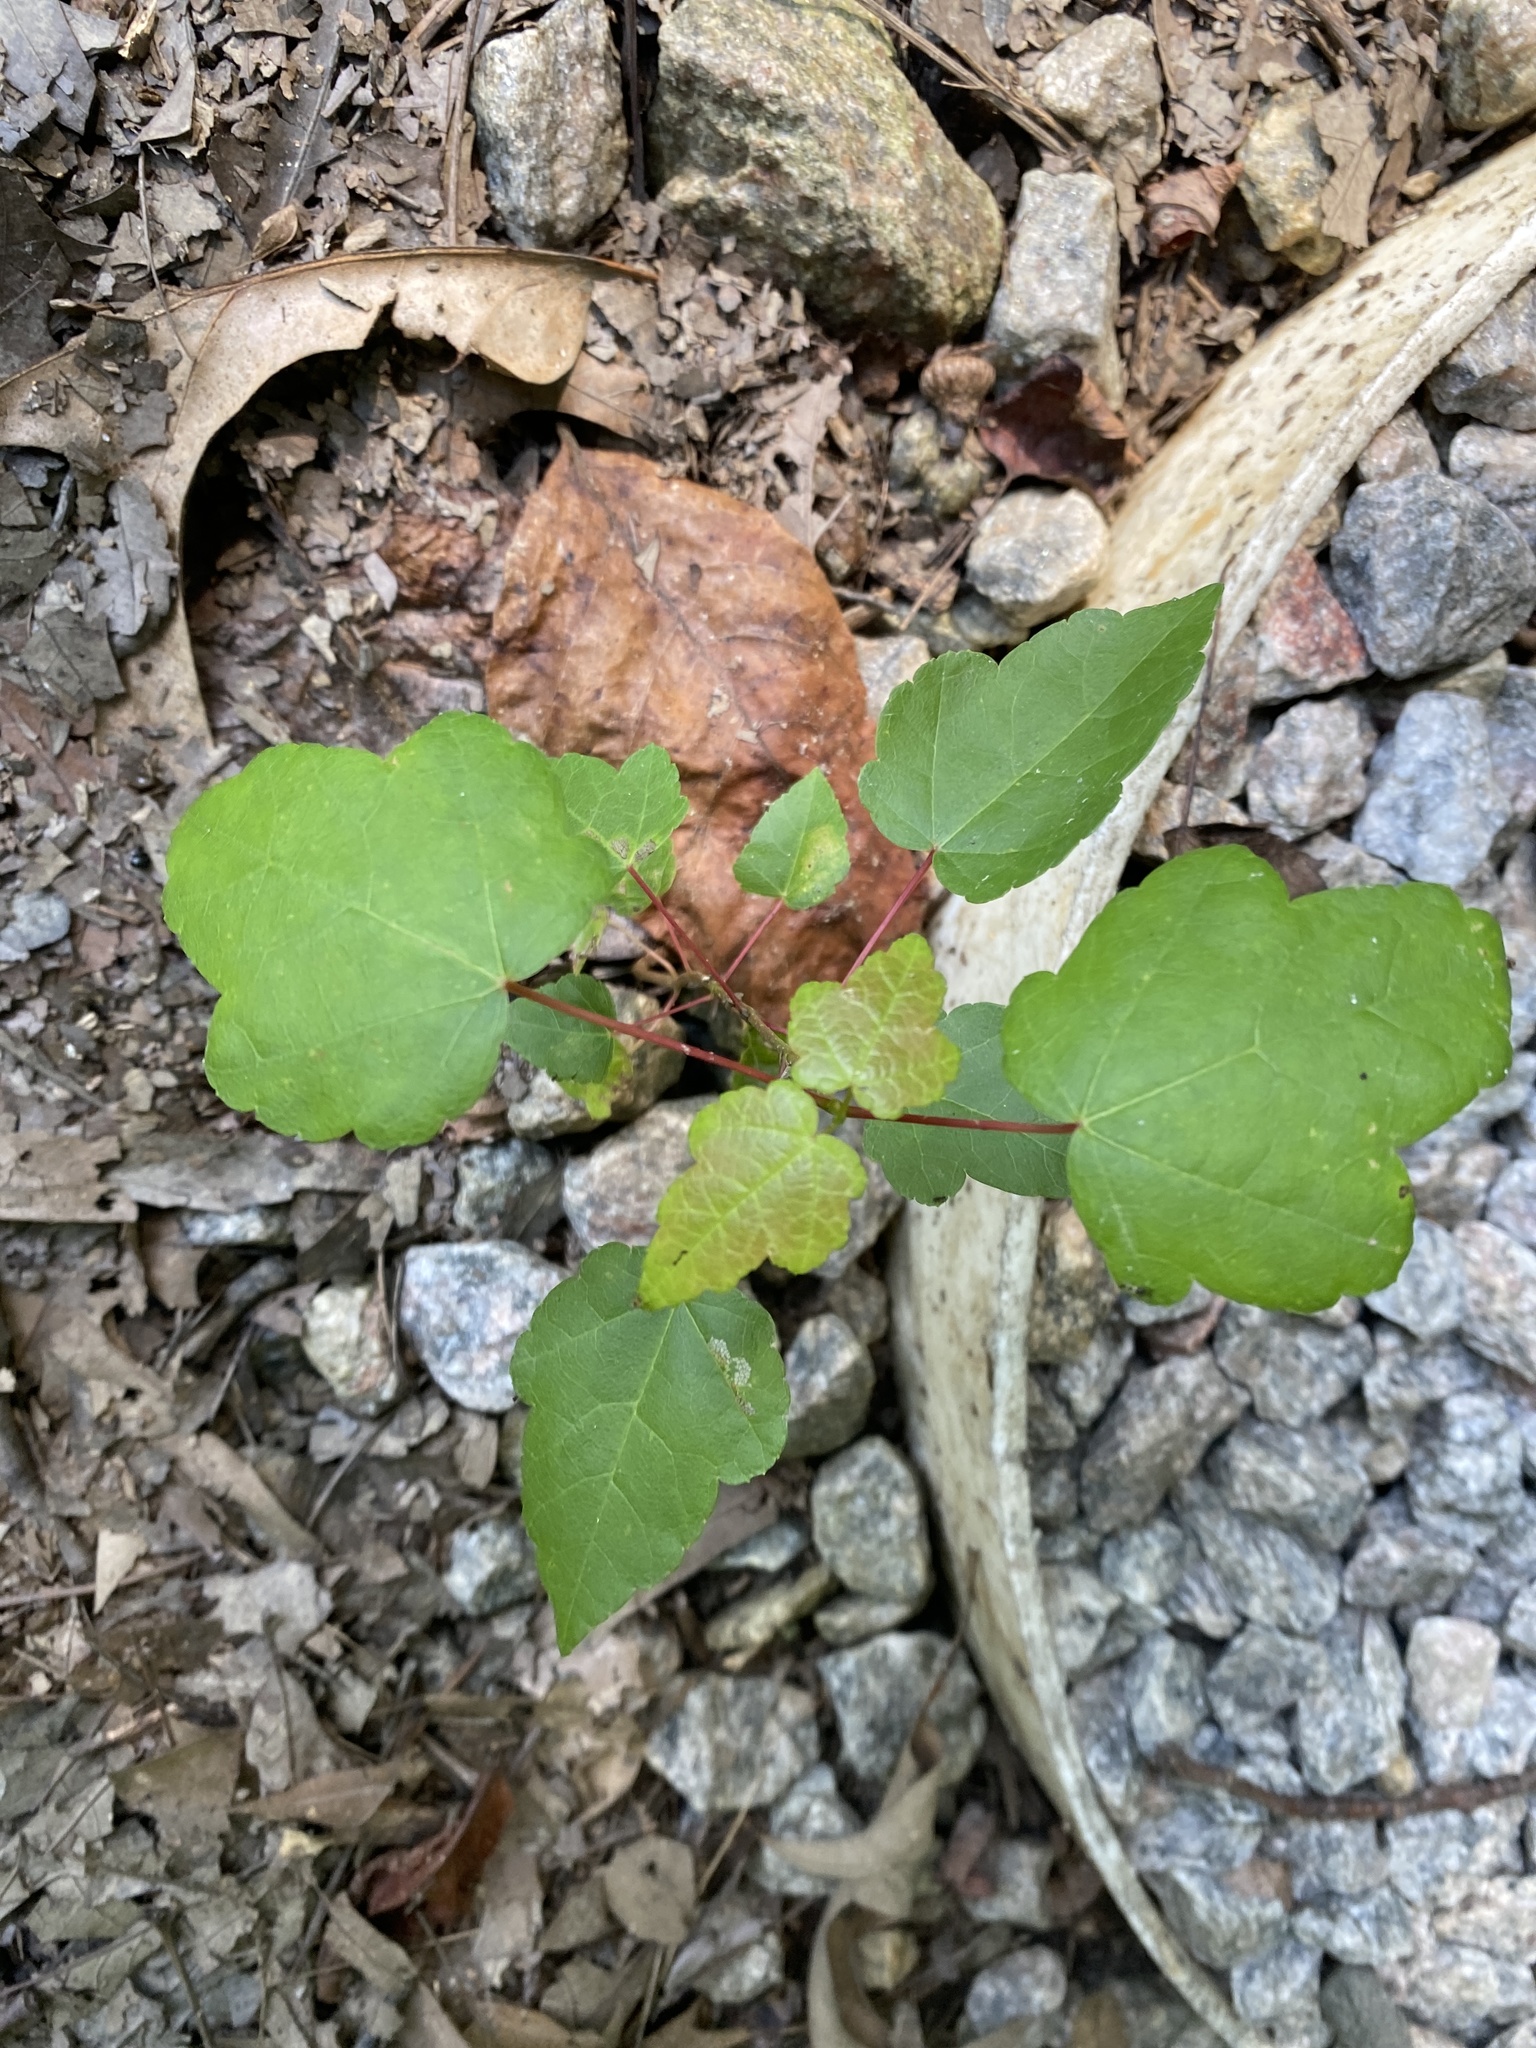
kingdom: Plantae
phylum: Tracheophyta
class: Magnoliopsida
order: Sapindales
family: Sapindaceae
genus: Acer
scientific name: Acer rubrum
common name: Red maple
